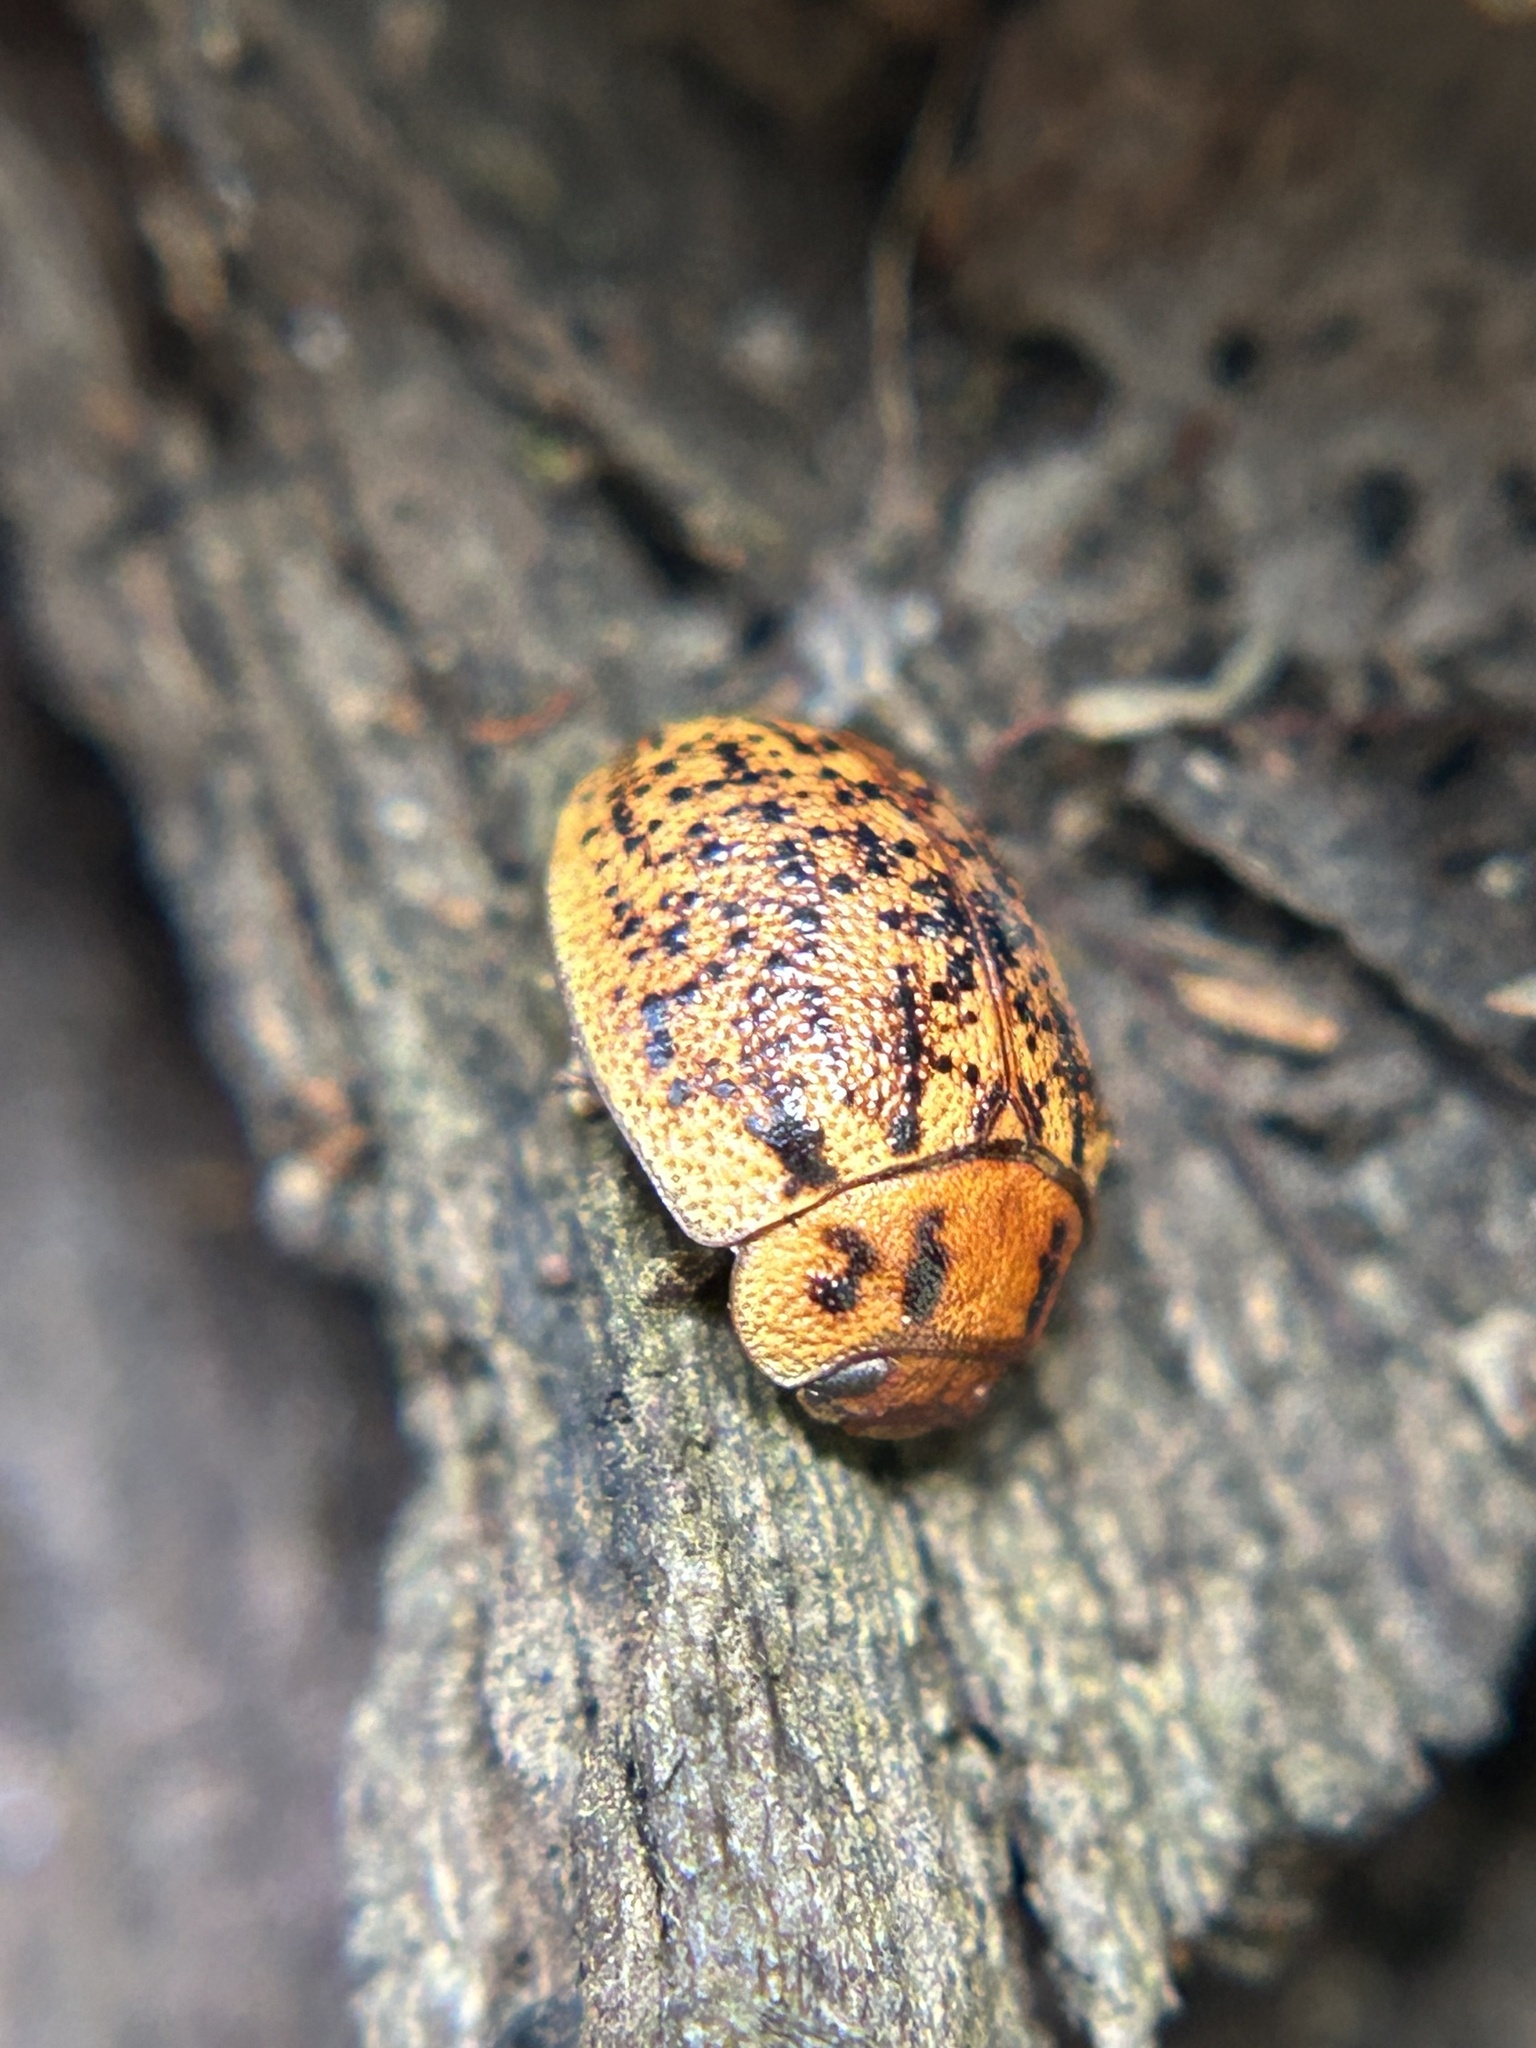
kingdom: Animalia
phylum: Arthropoda
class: Insecta
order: Coleoptera
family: Chrysomelidae
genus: Trachymela
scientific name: Trachymela sloanei
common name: Australian tortoise beetle
